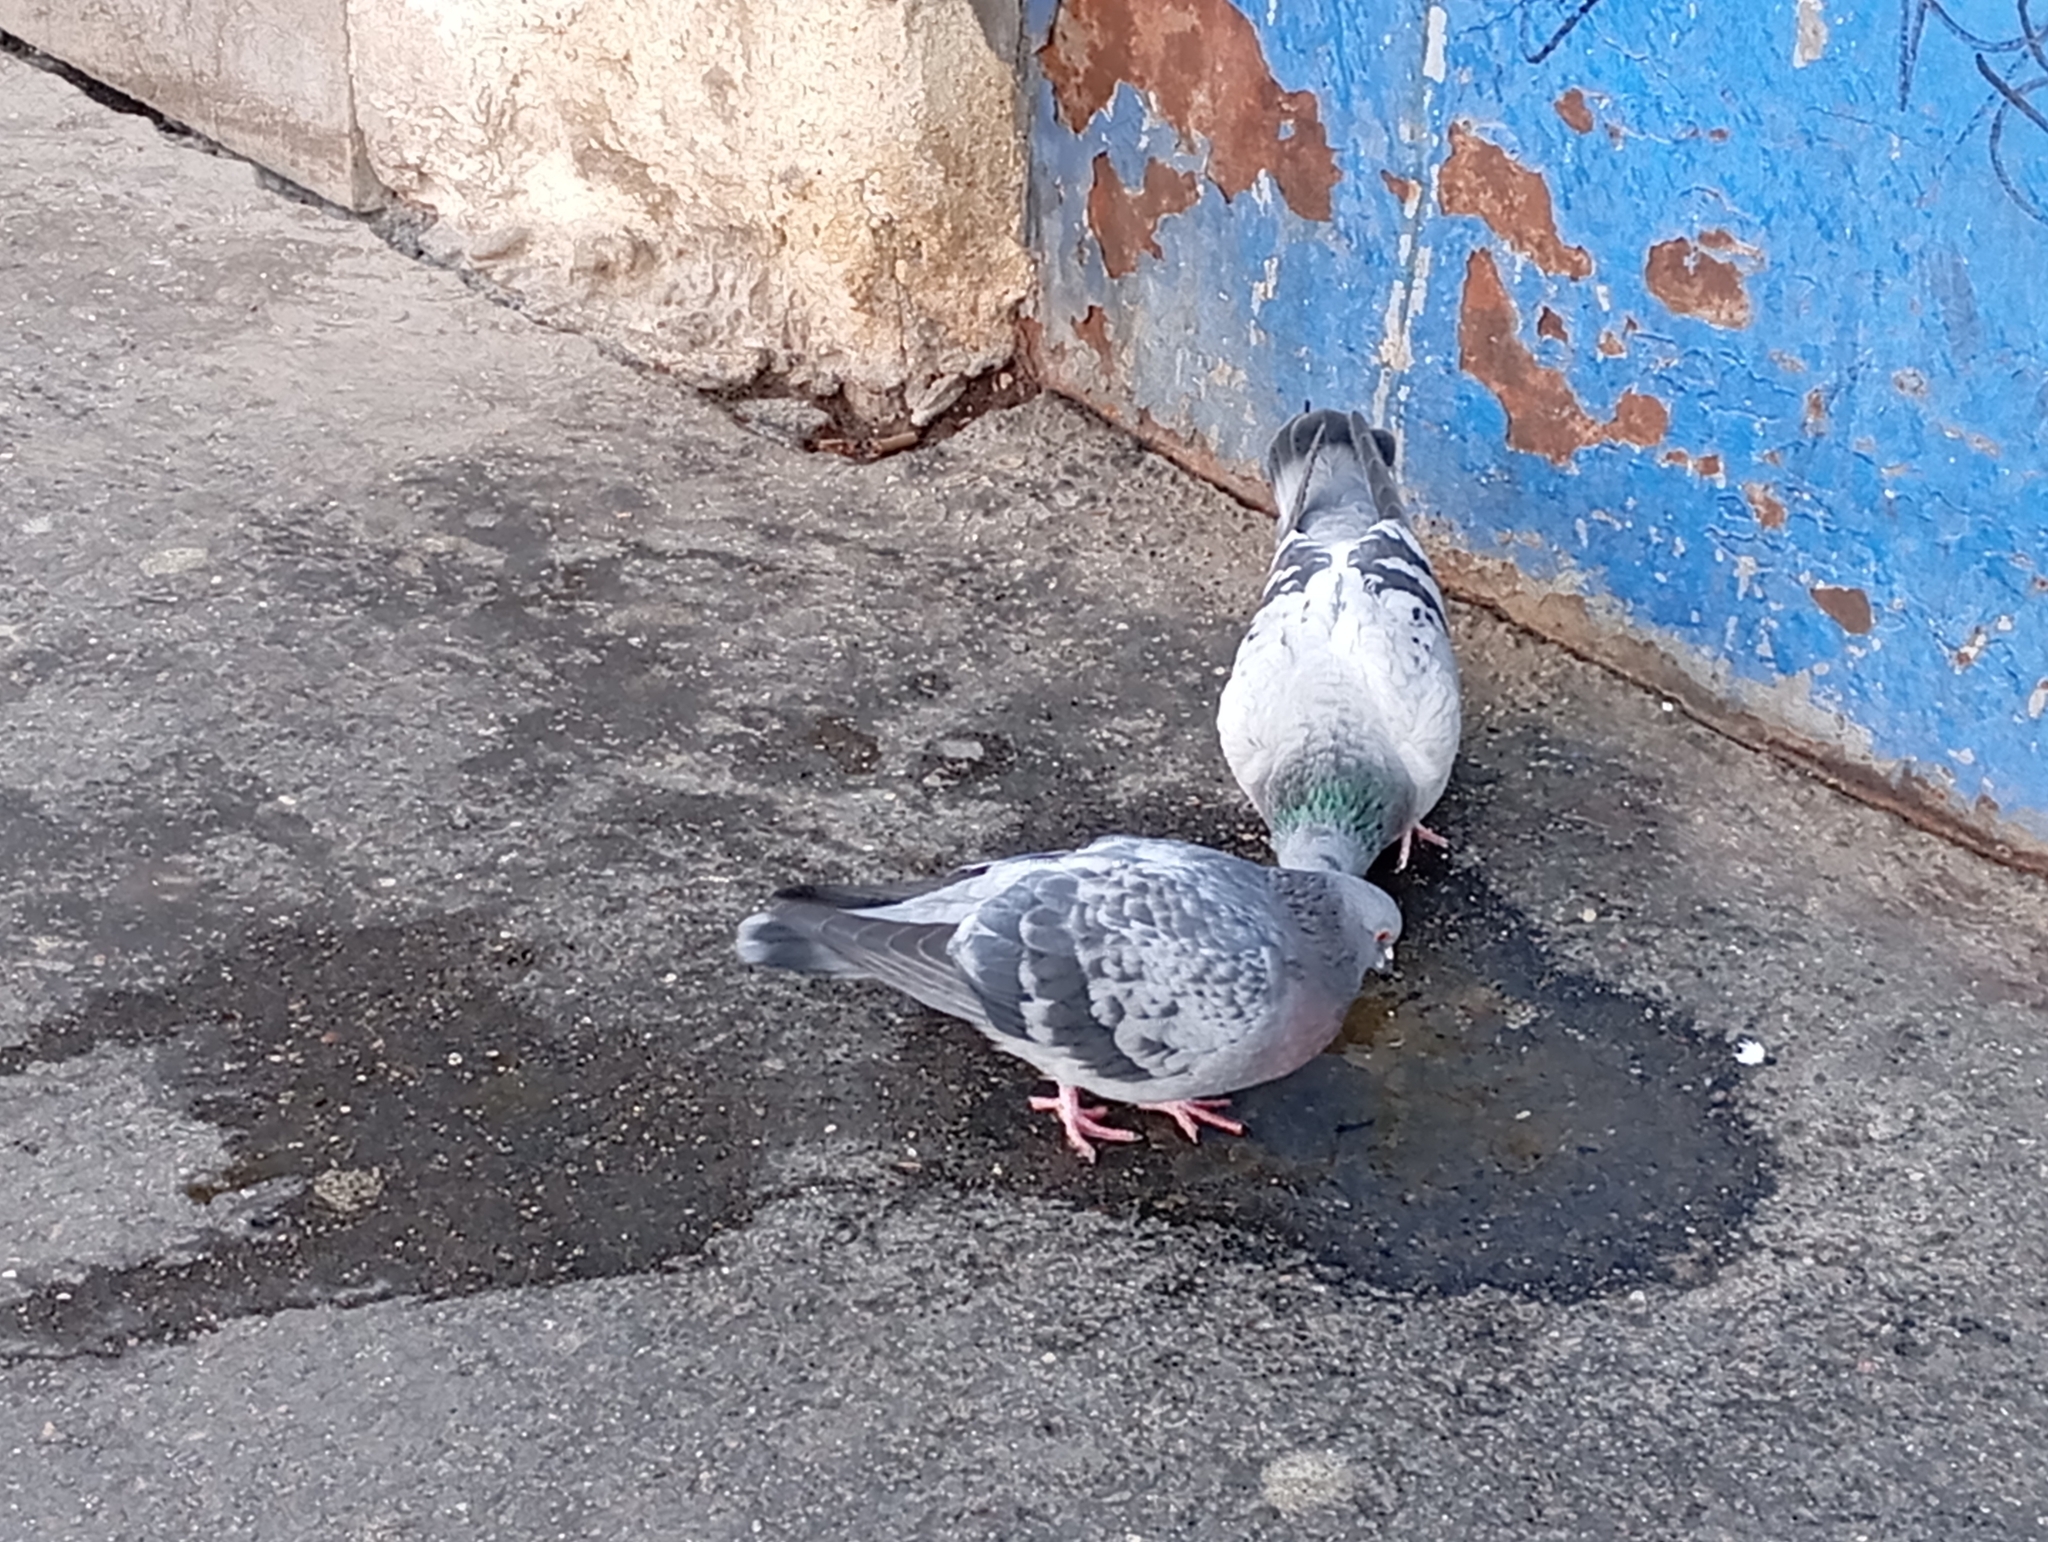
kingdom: Animalia
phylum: Chordata
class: Aves
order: Columbiformes
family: Columbidae
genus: Columba
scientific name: Columba livia
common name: Rock pigeon
